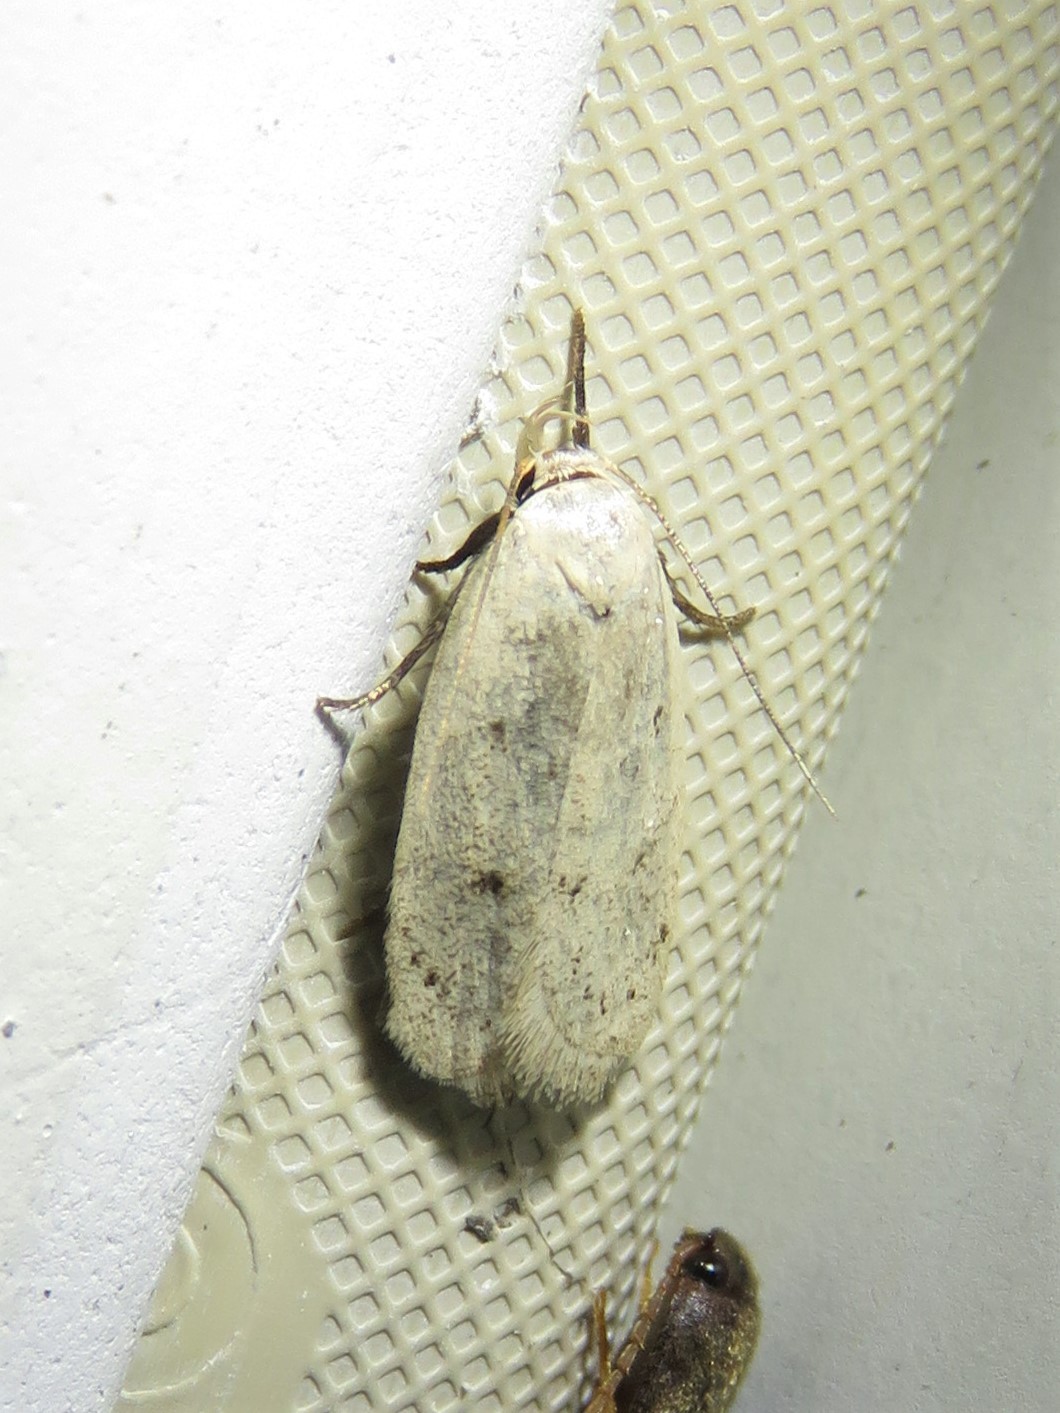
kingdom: Animalia
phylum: Arthropoda
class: Insecta
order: Lepidoptera
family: Oecophoridae
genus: Inga
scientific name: Inga cretacea
